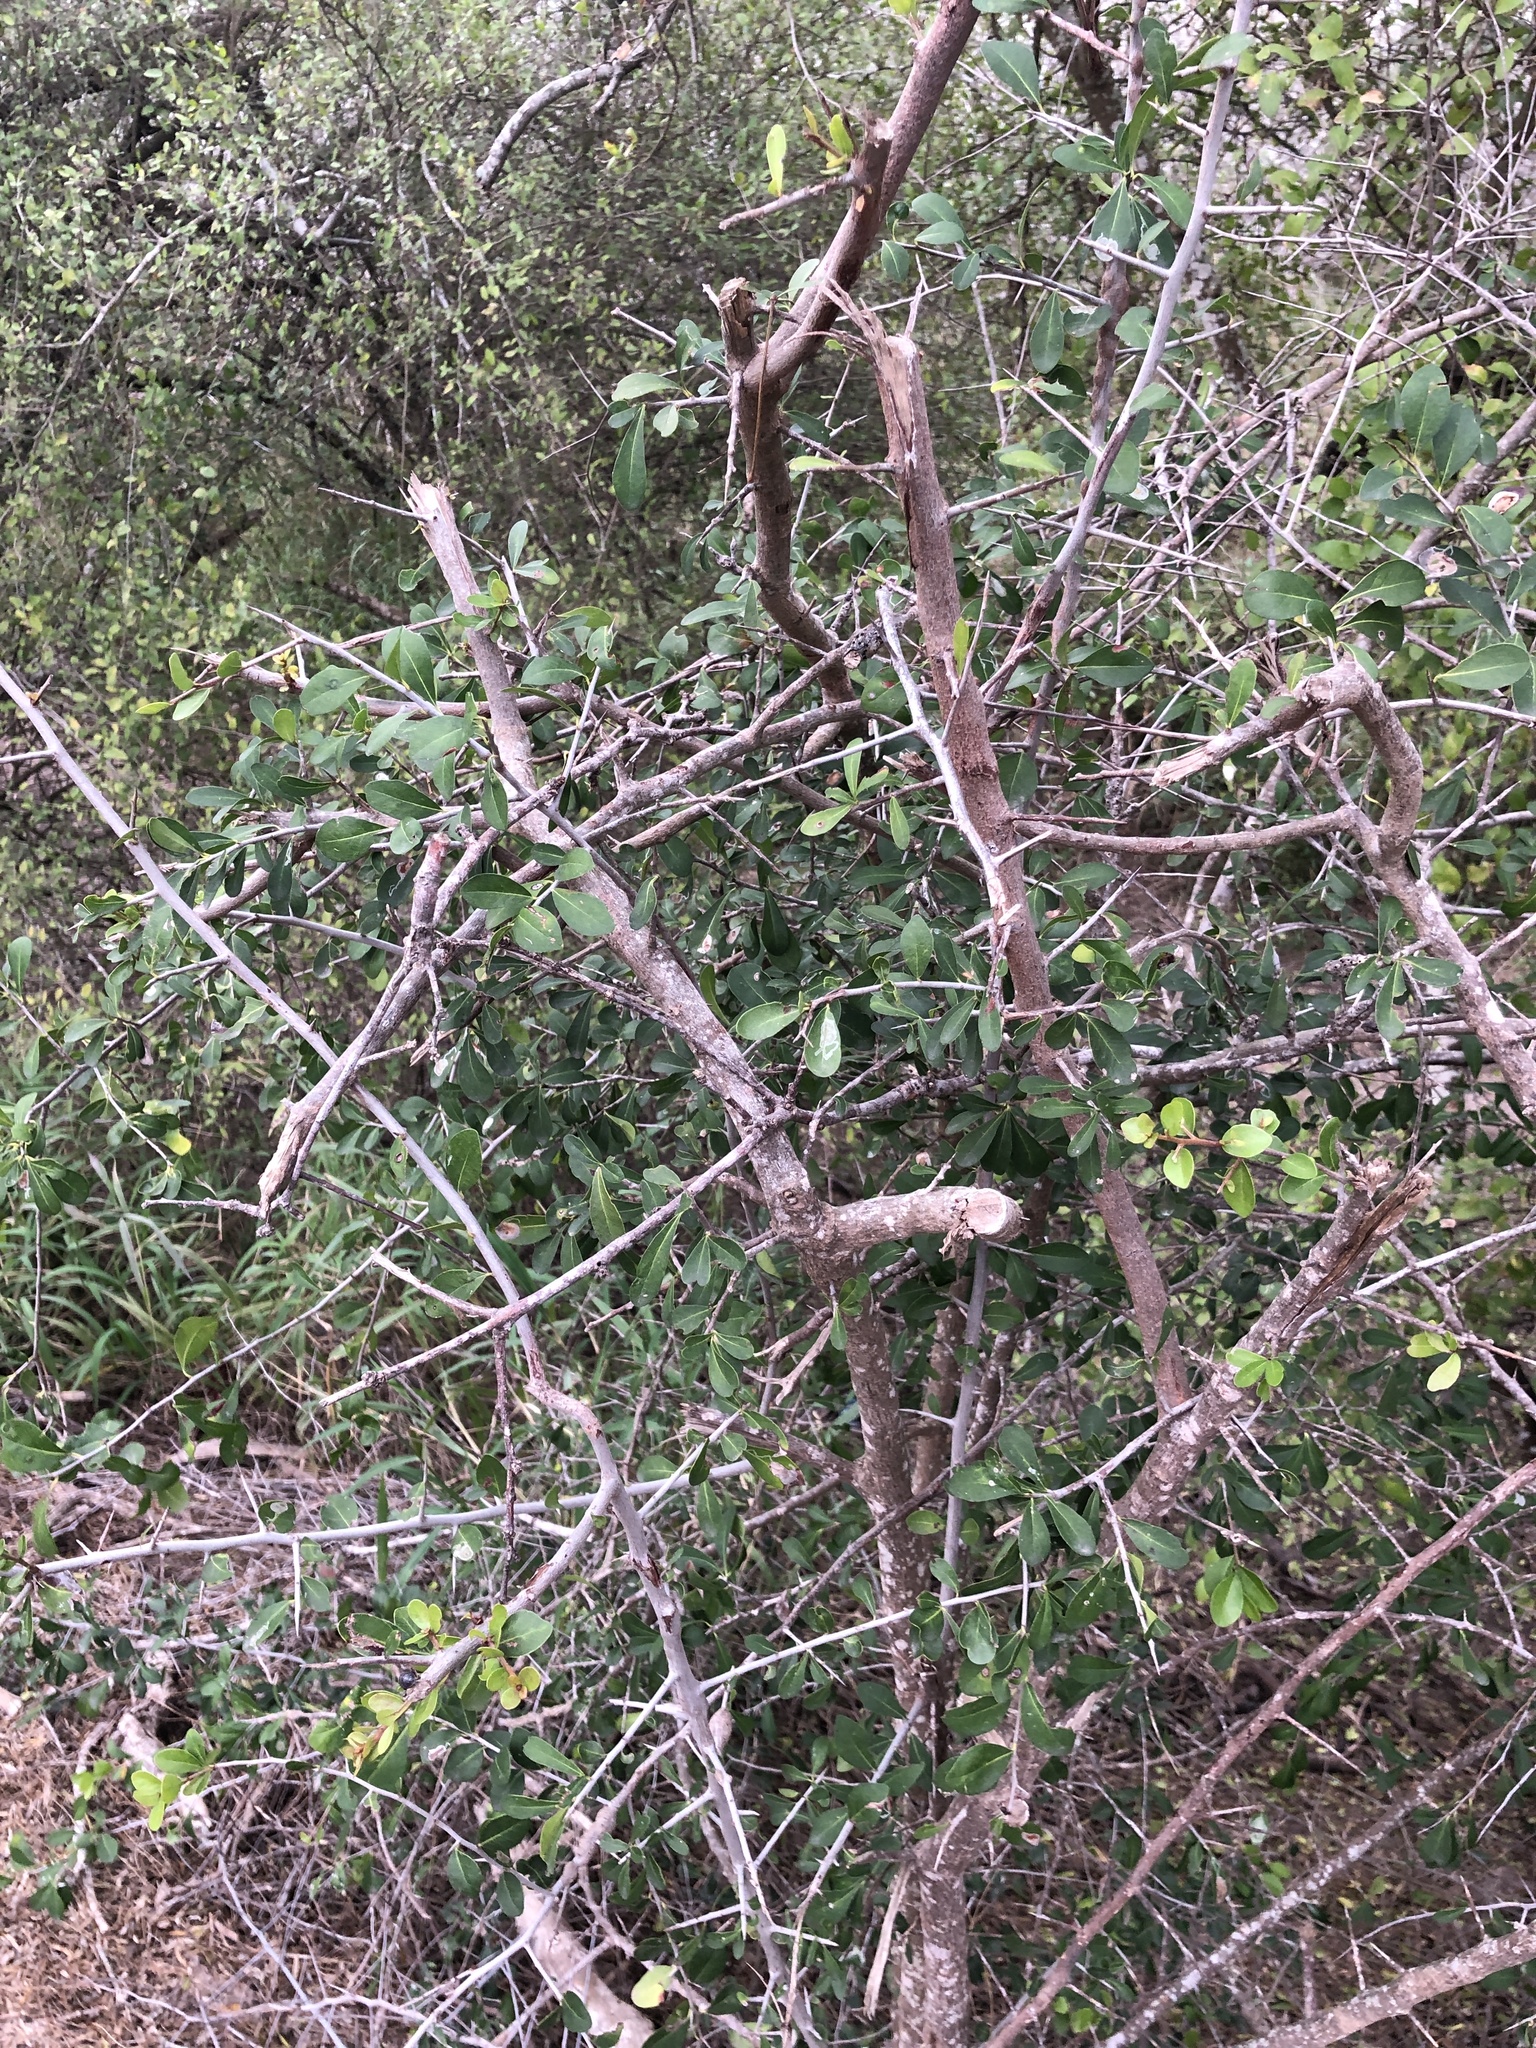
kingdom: Plantae
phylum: Tracheophyta
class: Magnoliopsida
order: Ericales
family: Sapotaceae
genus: Sideroxylon
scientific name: Sideroxylon celastrinum
